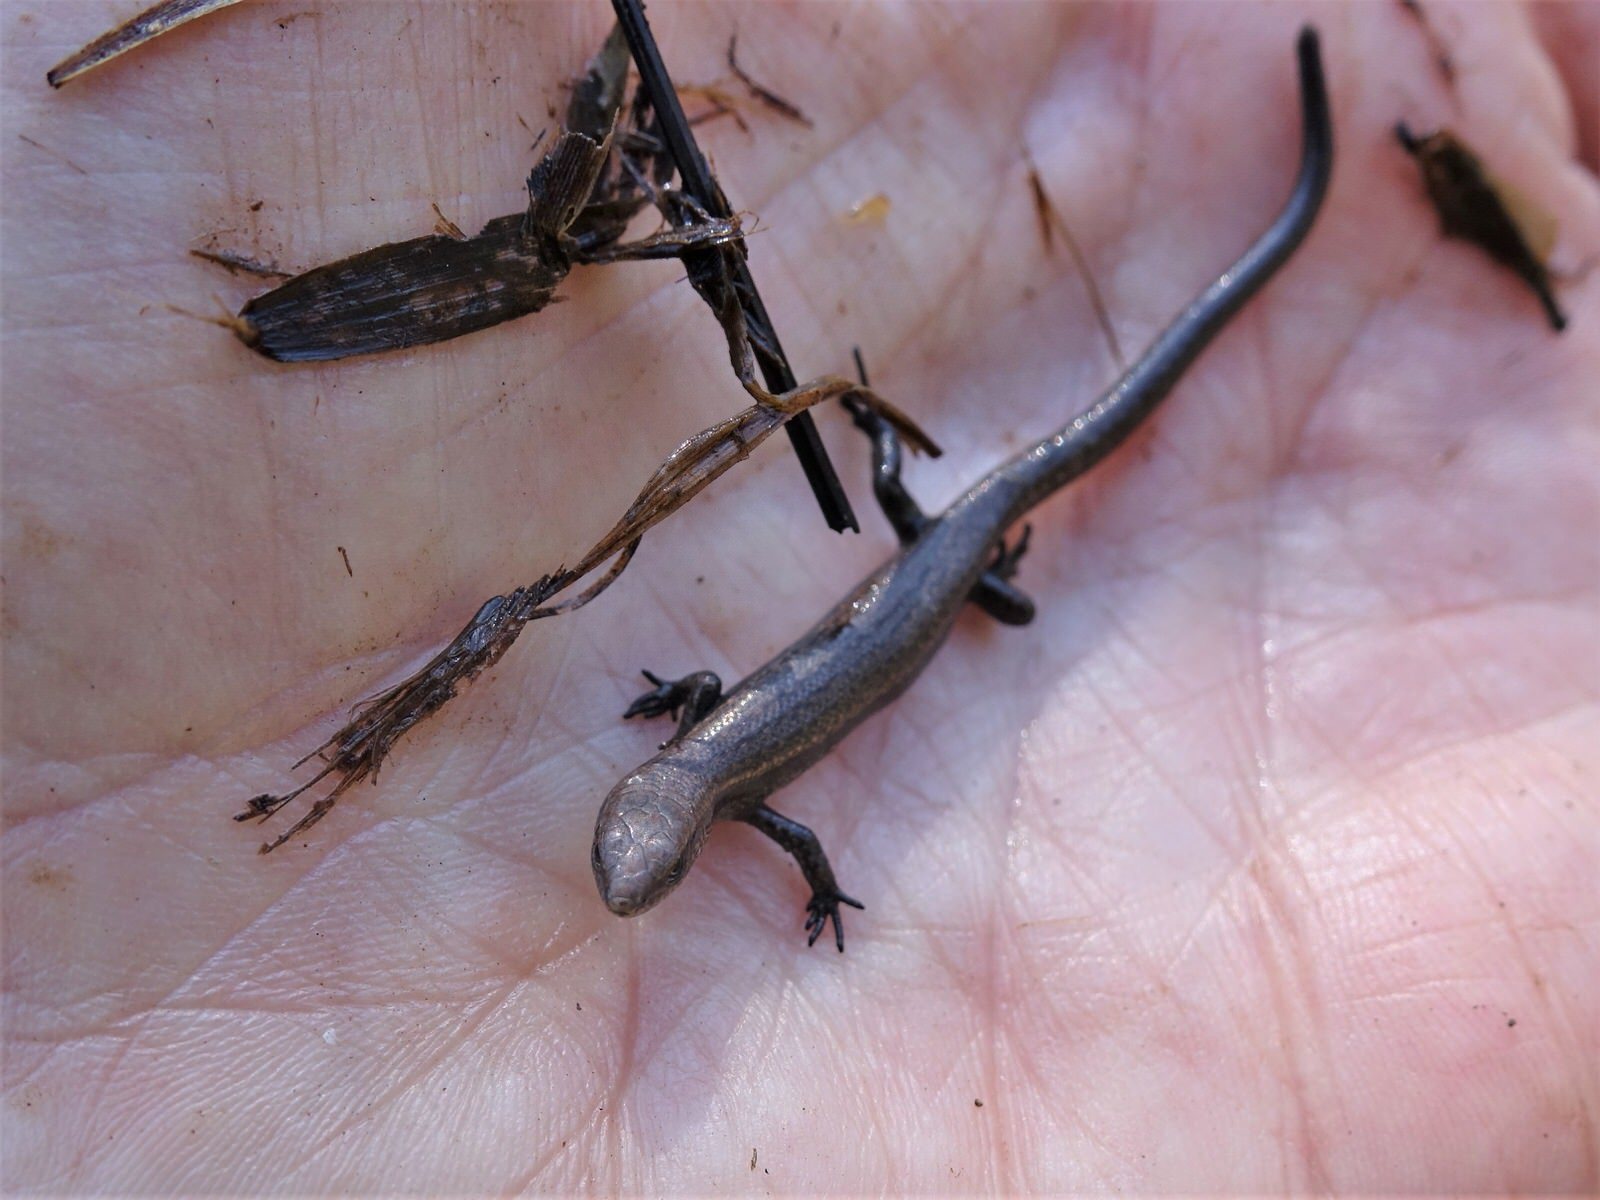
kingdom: Animalia
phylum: Chordata
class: Squamata
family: Scincidae
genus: Lampropholis
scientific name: Lampropholis delicata
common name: Plague skink
